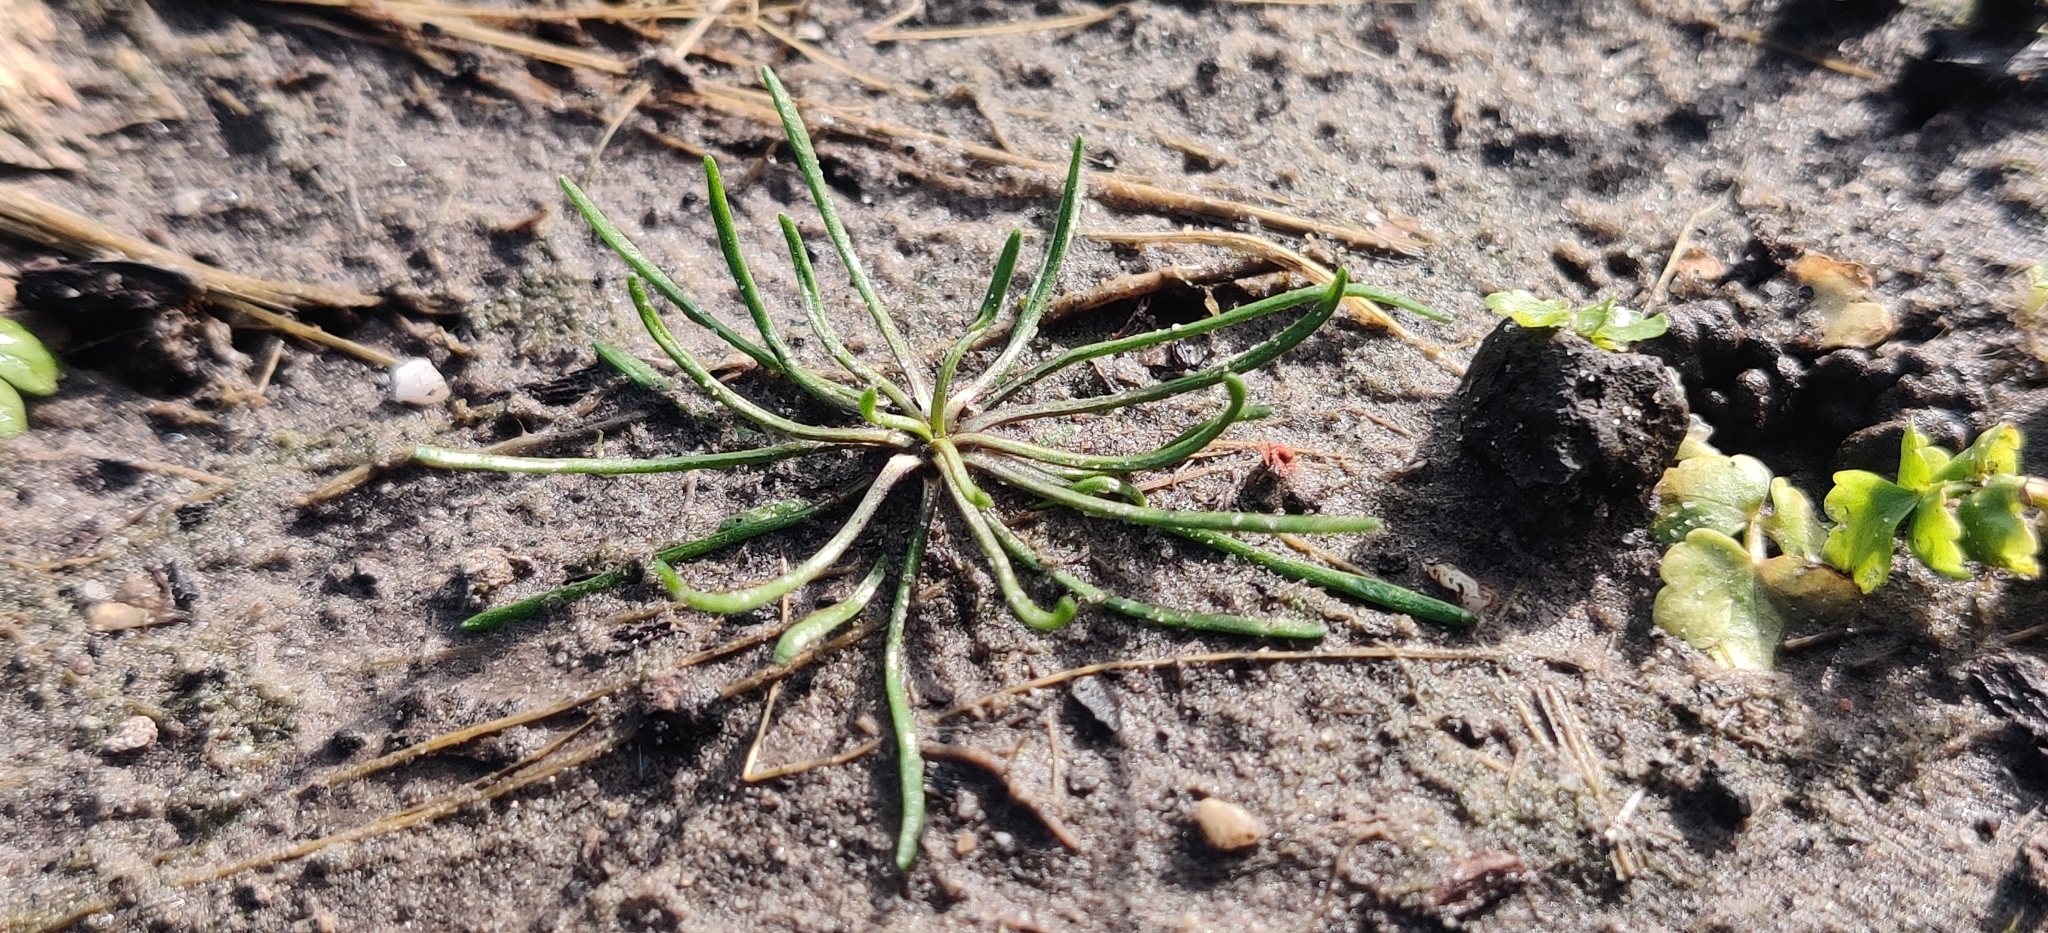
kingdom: Plantae
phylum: Tracheophyta
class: Magnoliopsida
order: Ranunculales
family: Ranunculaceae
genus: Myosurus
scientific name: Myosurus minimus
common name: Mousetail
